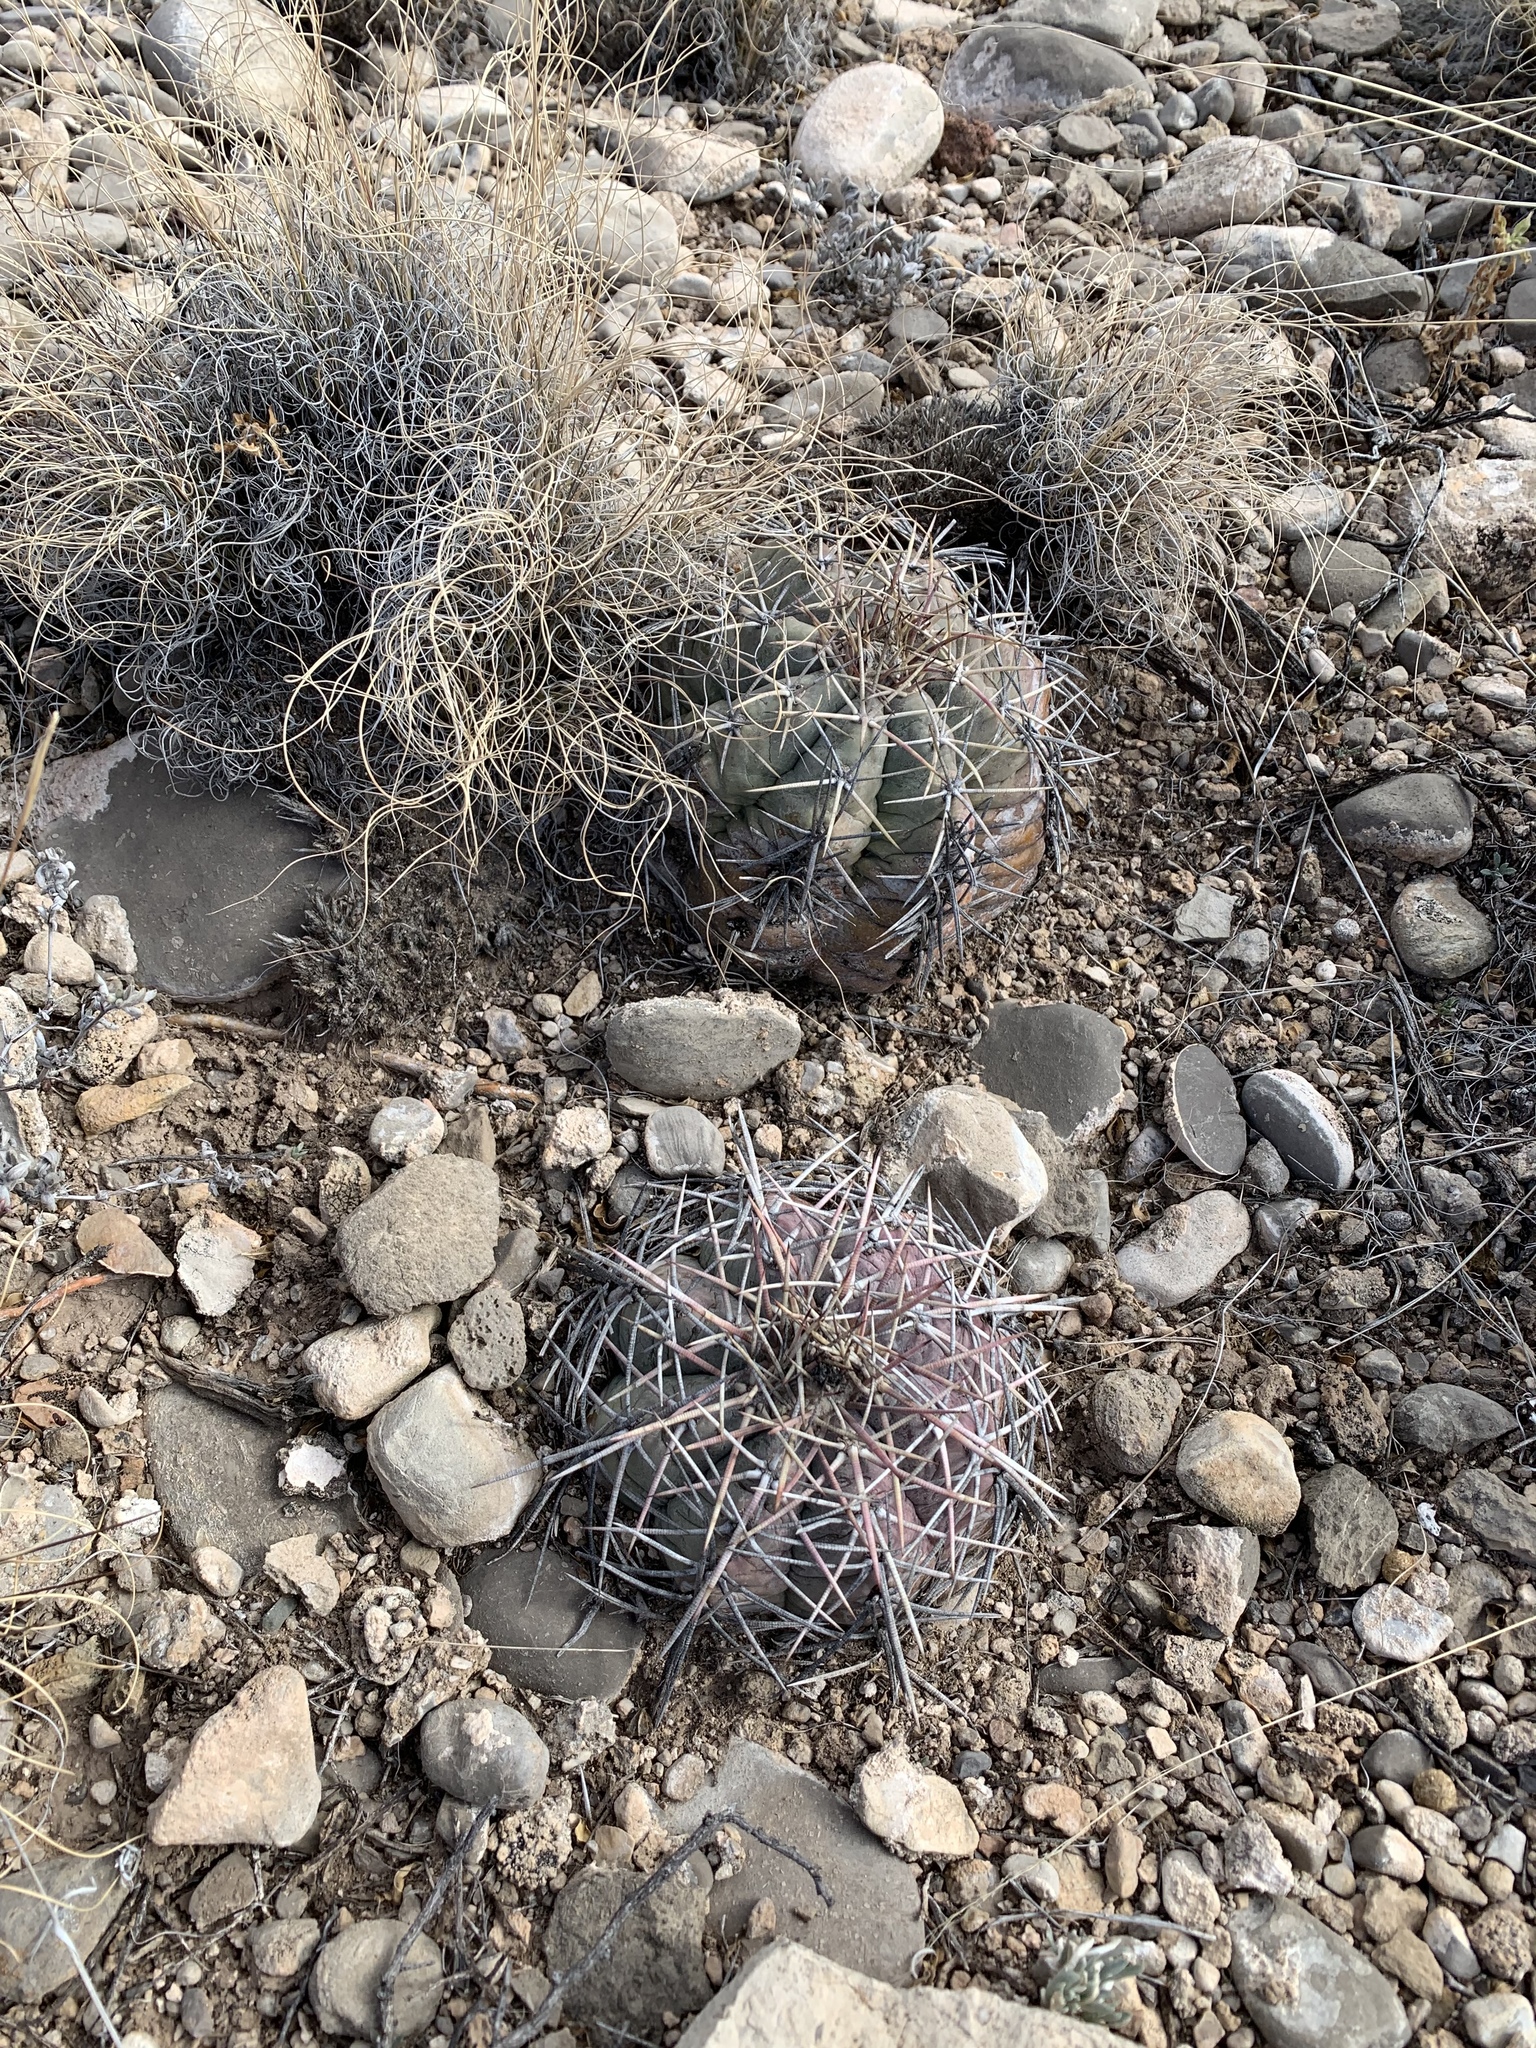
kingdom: Plantae
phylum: Tracheophyta
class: Magnoliopsida
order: Caryophyllales
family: Cactaceae
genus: Echinocactus
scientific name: Echinocactus horizonthalonius
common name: Devilshead
